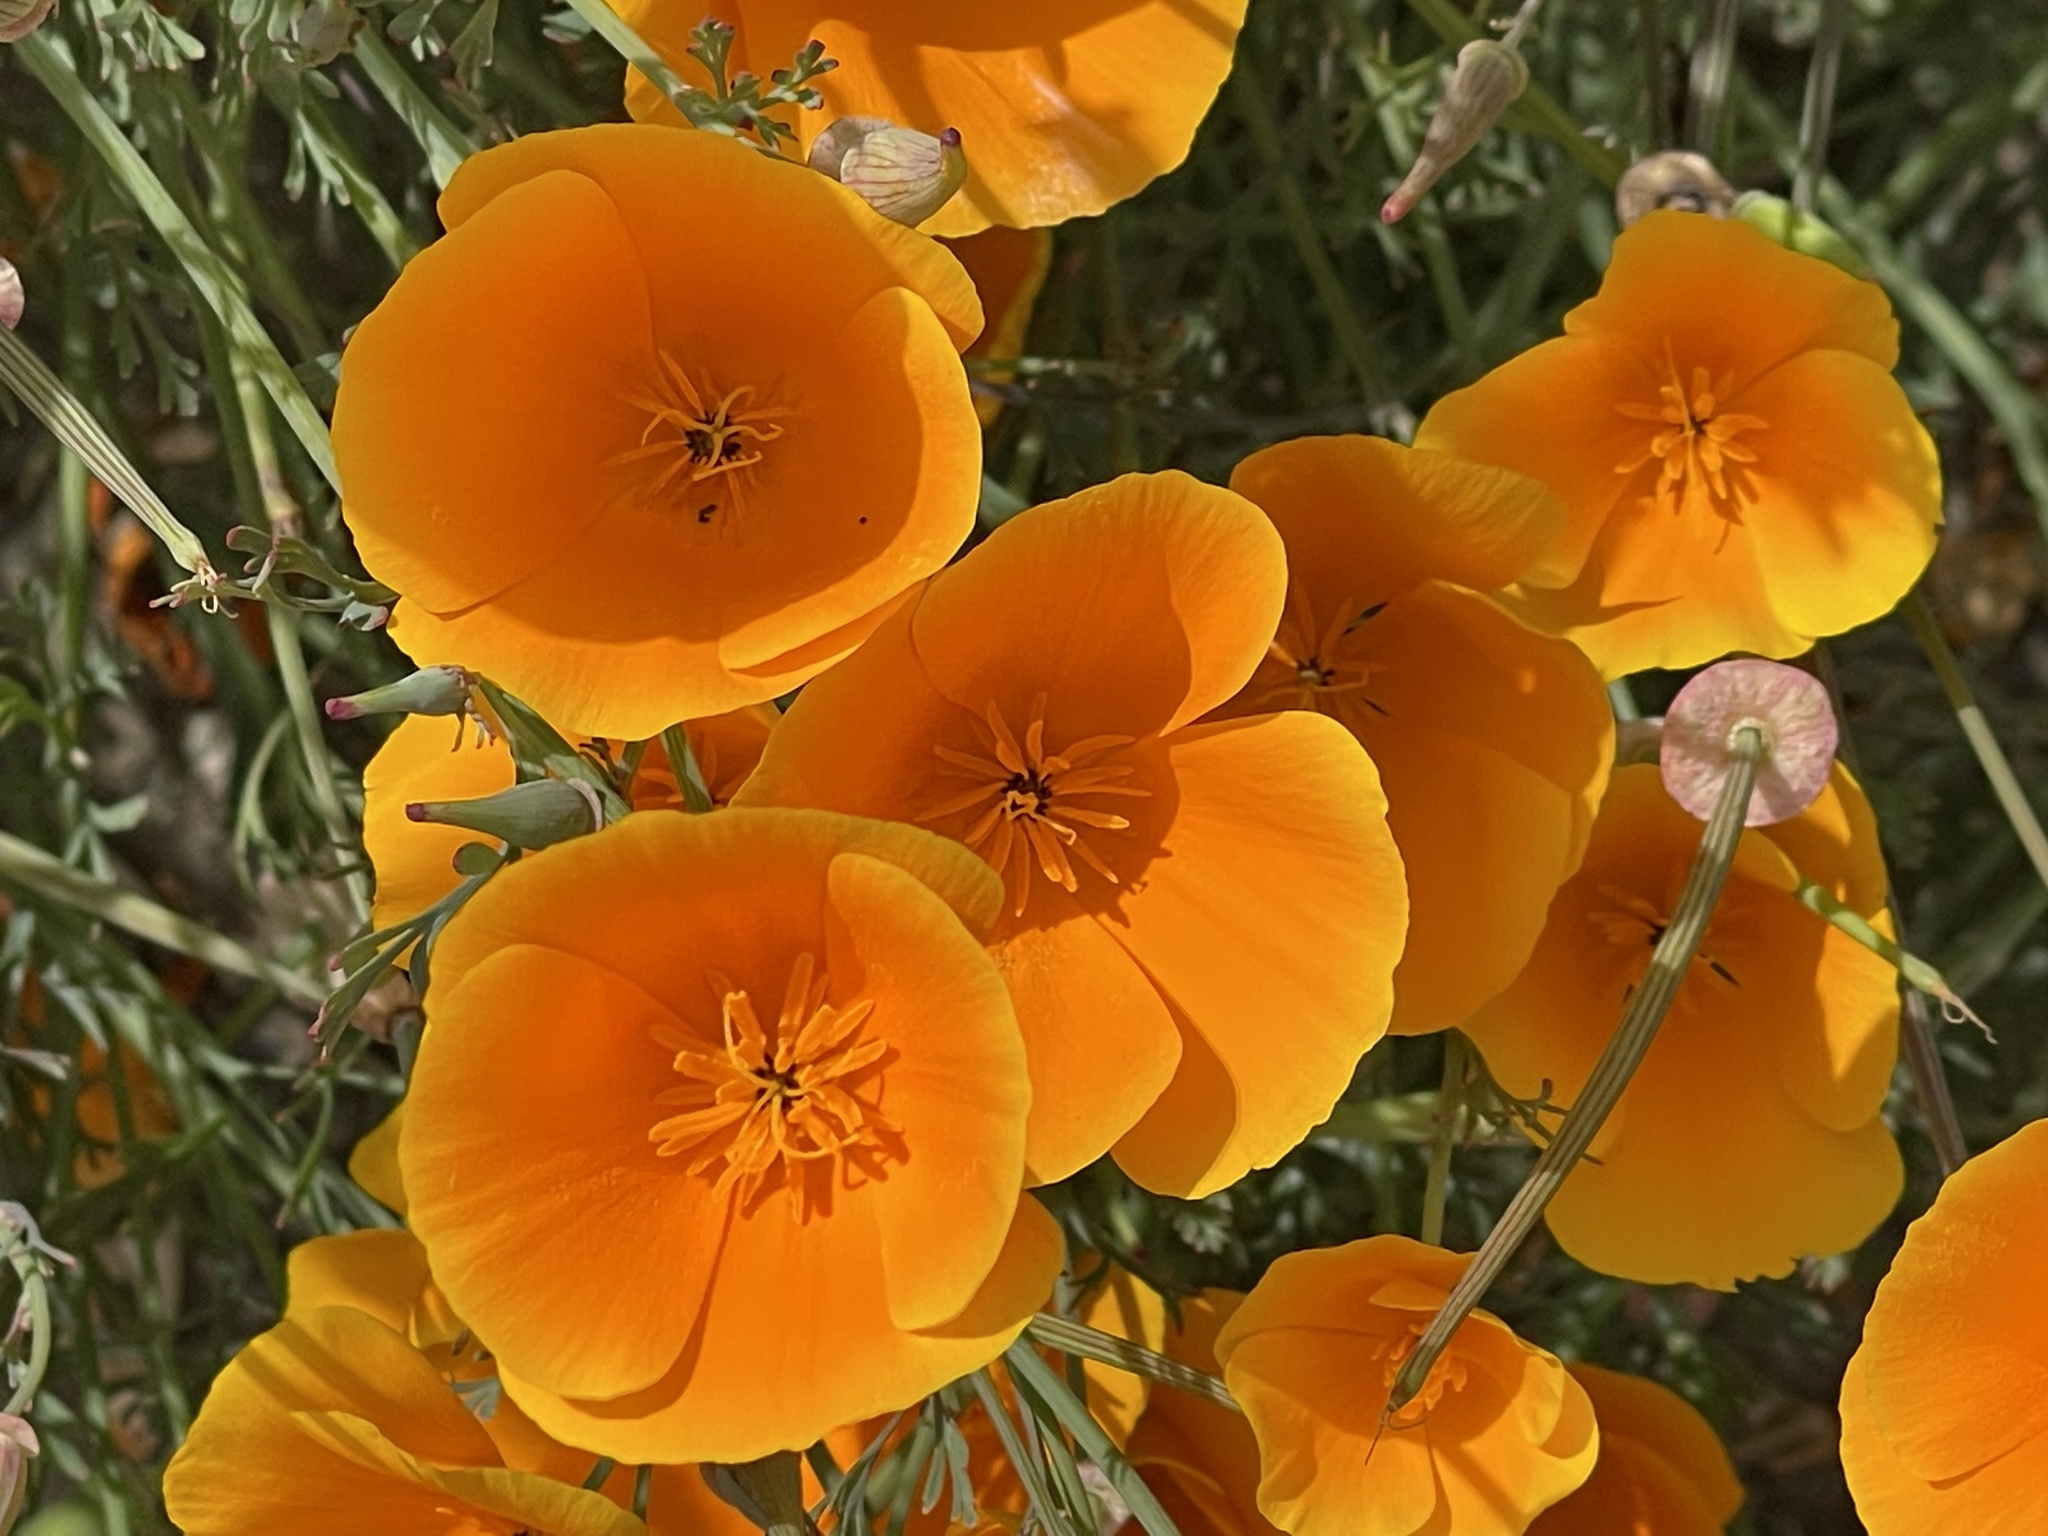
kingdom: Plantae
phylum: Tracheophyta
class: Magnoliopsida
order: Ranunculales
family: Papaveraceae
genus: Eschscholzia
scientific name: Eschscholzia californica
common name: California poppy
